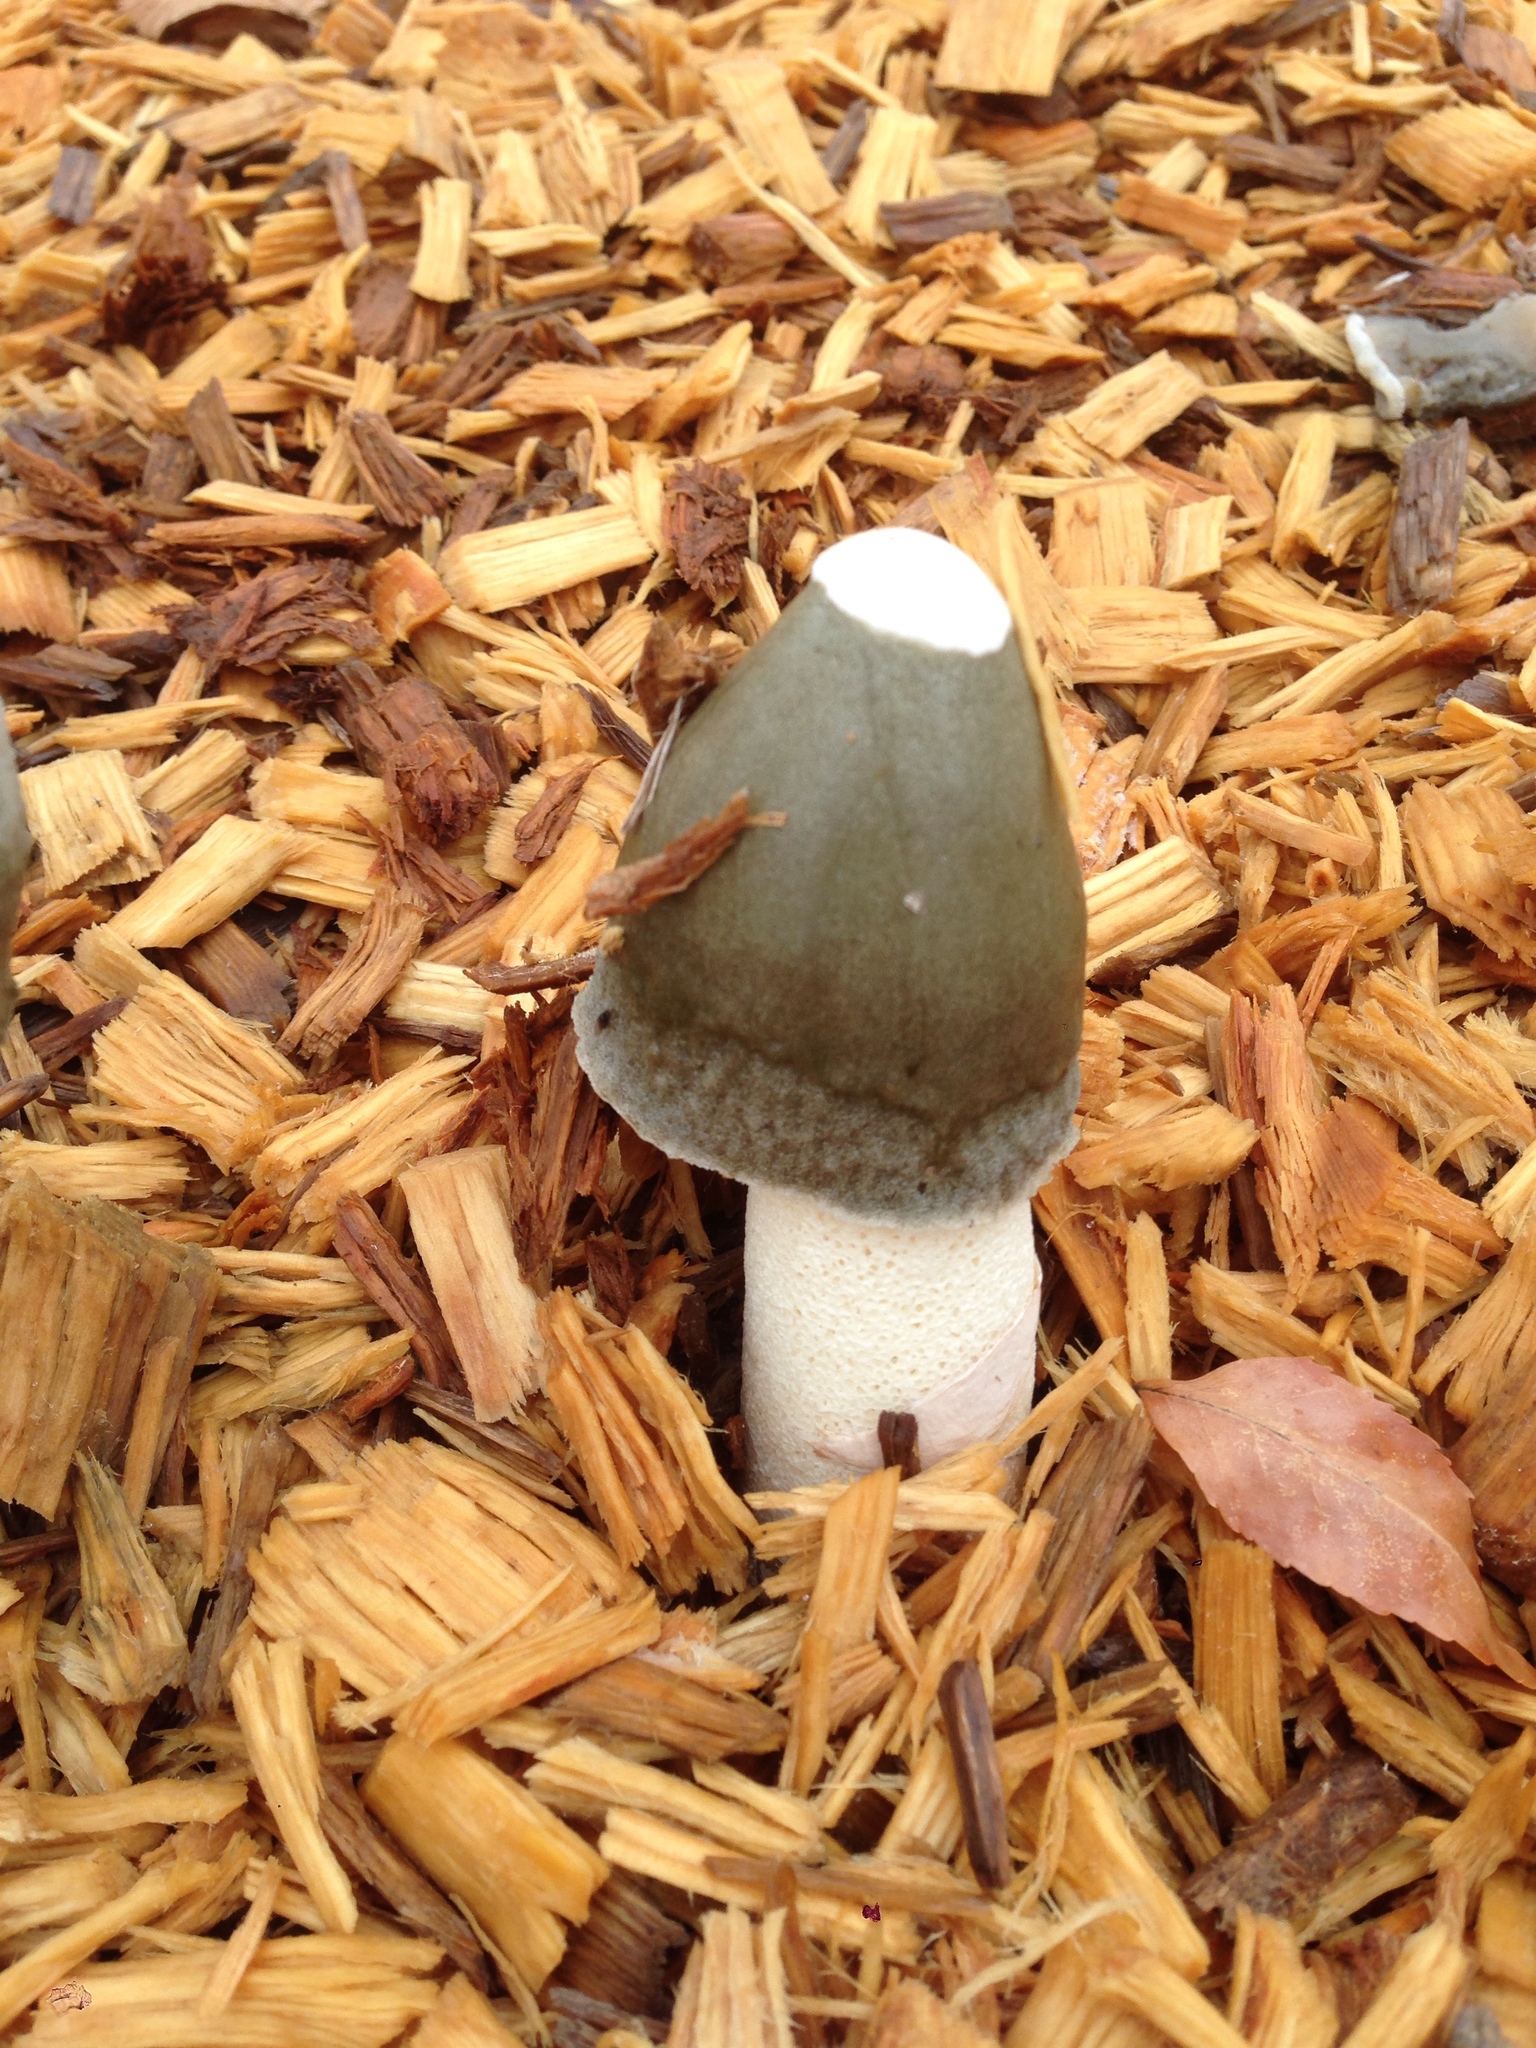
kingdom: Fungi
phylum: Basidiomycota
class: Agaricomycetes
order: Phallales
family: Phallaceae
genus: Phallus
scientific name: Phallus ravenelii
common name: Ravenel's stinkhorn
